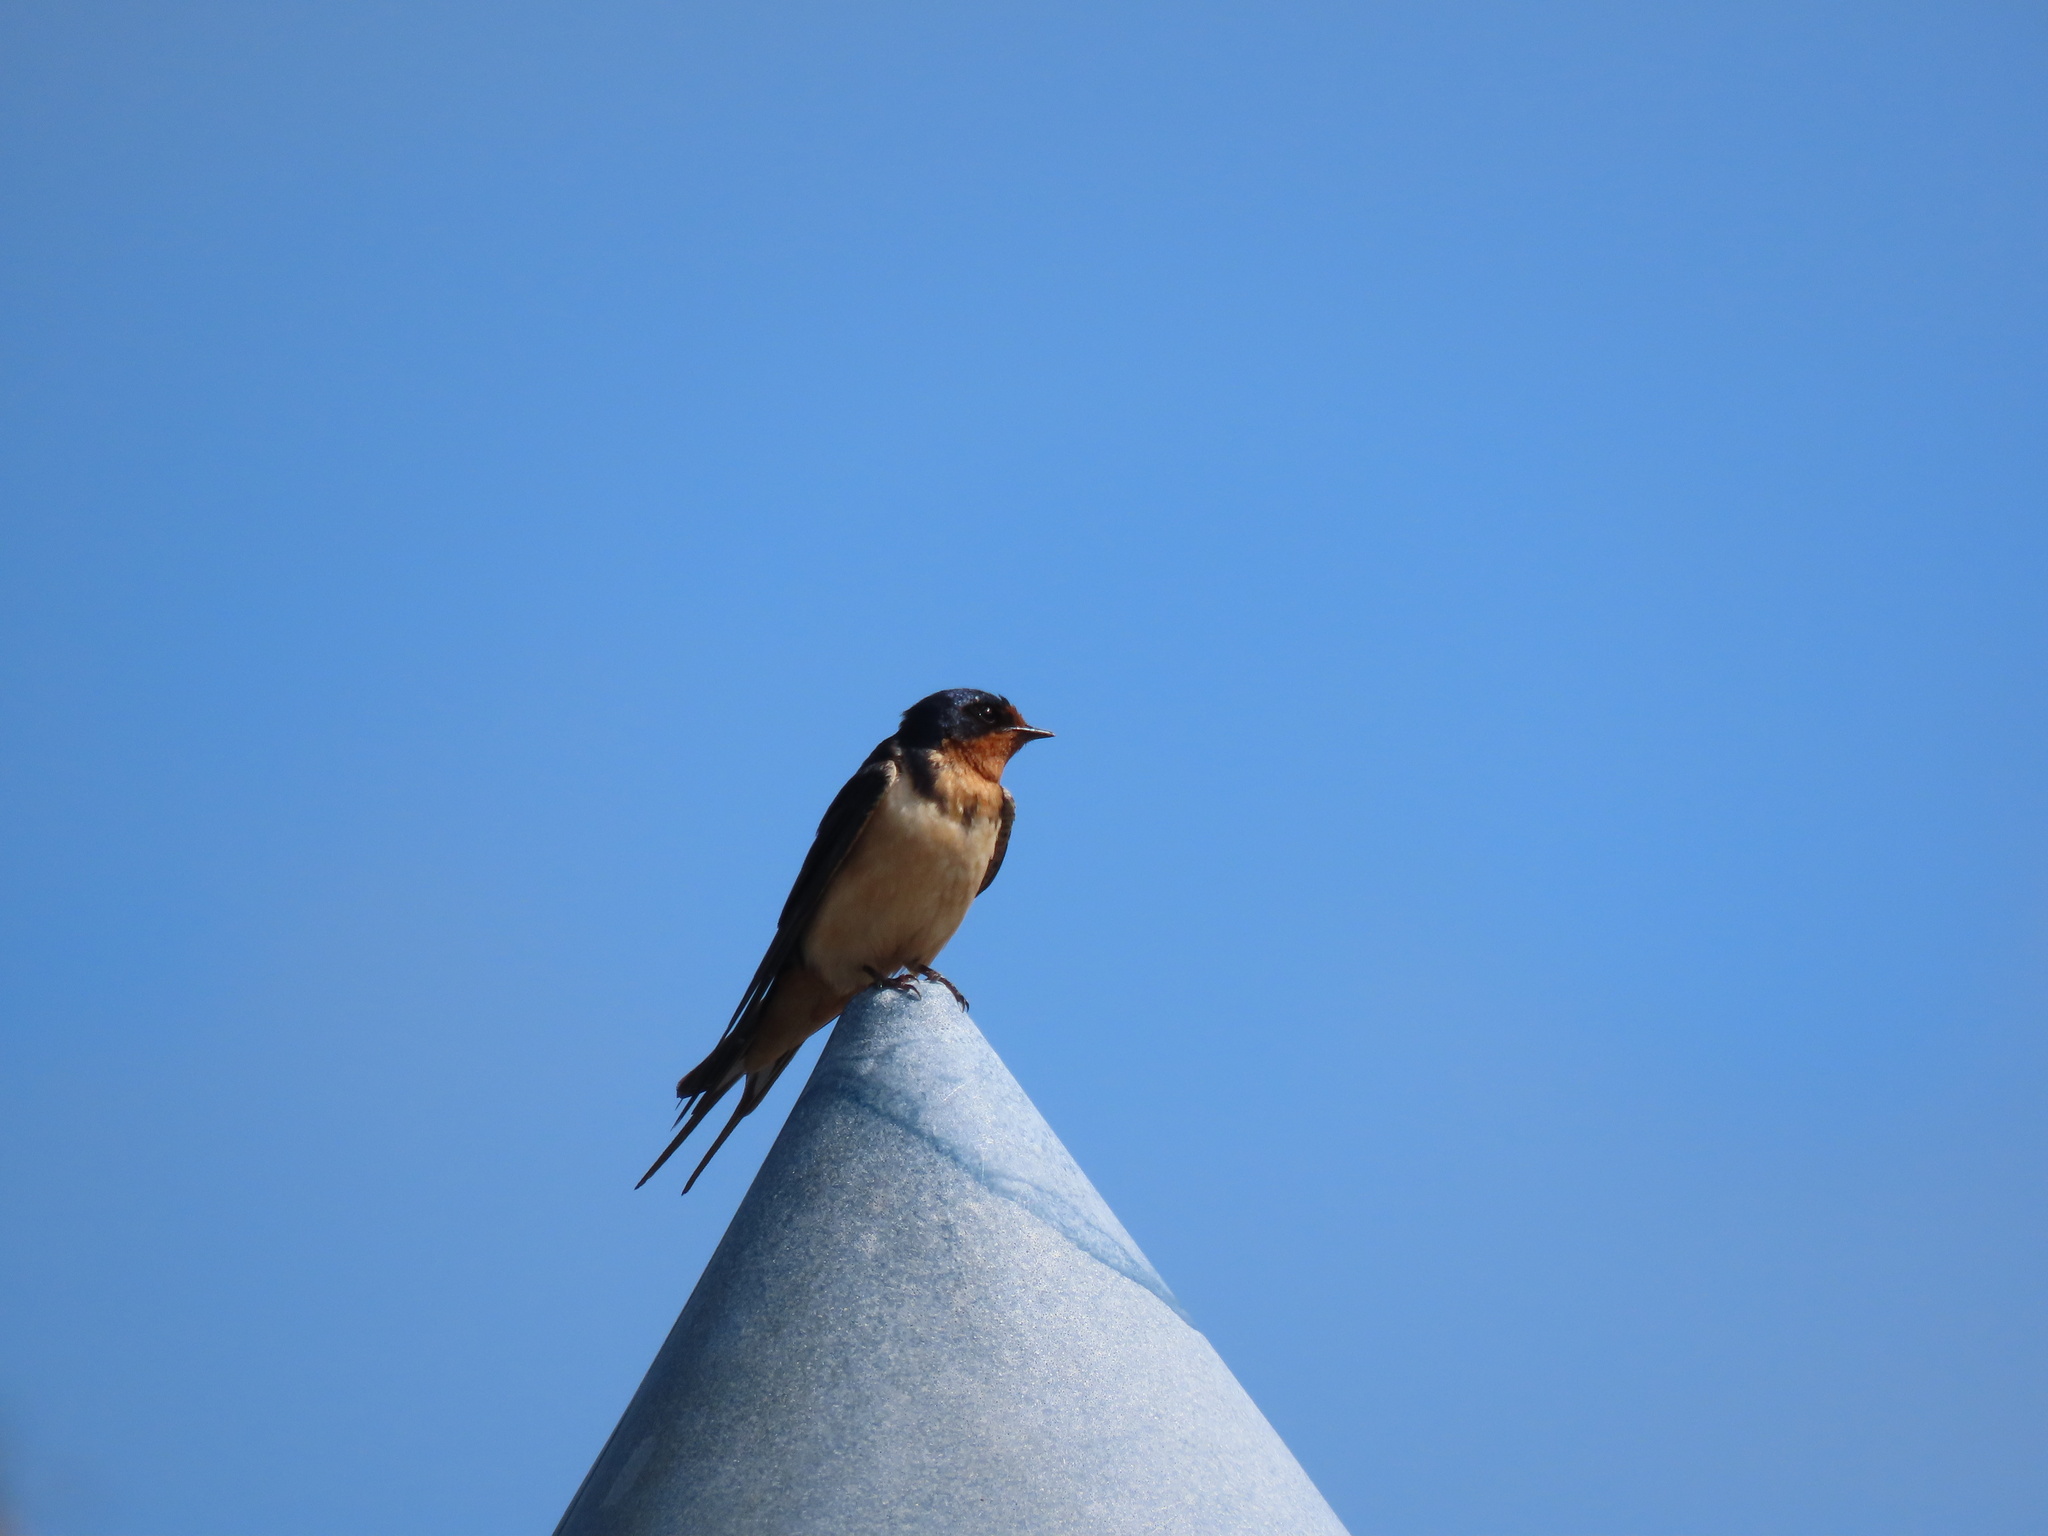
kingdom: Animalia
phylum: Chordata
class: Aves
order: Passeriformes
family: Hirundinidae
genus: Hirundo
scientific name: Hirundo rustica
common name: Barn swallow
